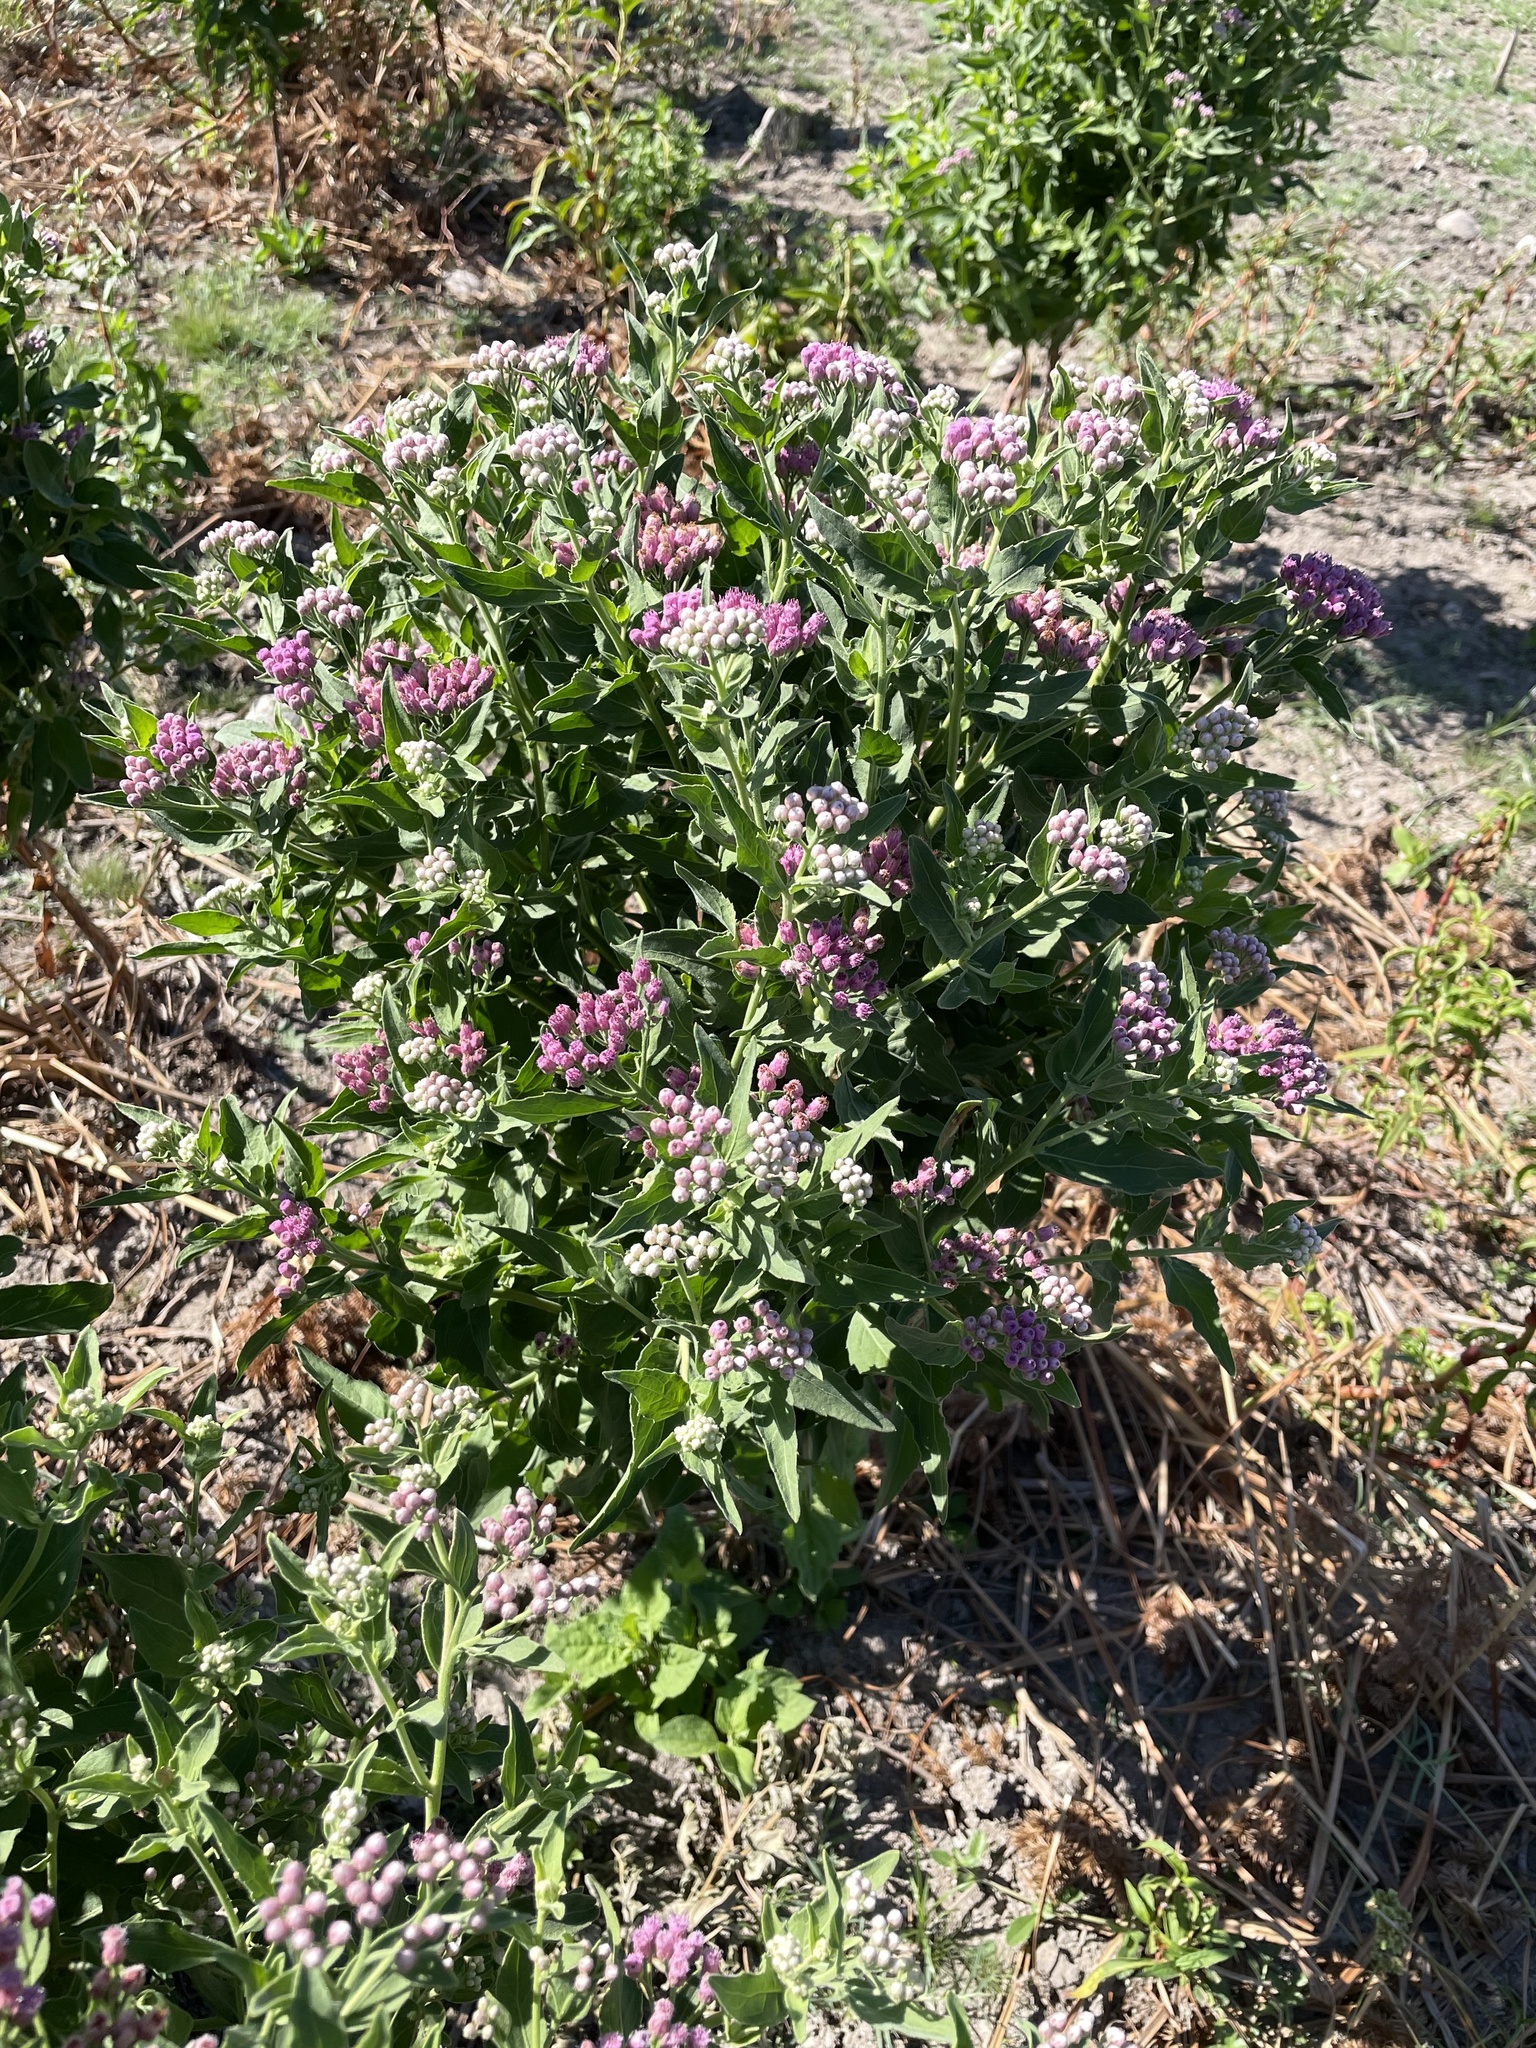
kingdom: Plantae
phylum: Tracheophyta
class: Magnoliopsida
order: Asterales
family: Asteraceae
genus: Pluchea
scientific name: Pluchea odorata
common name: Saltmarsh fleabane
